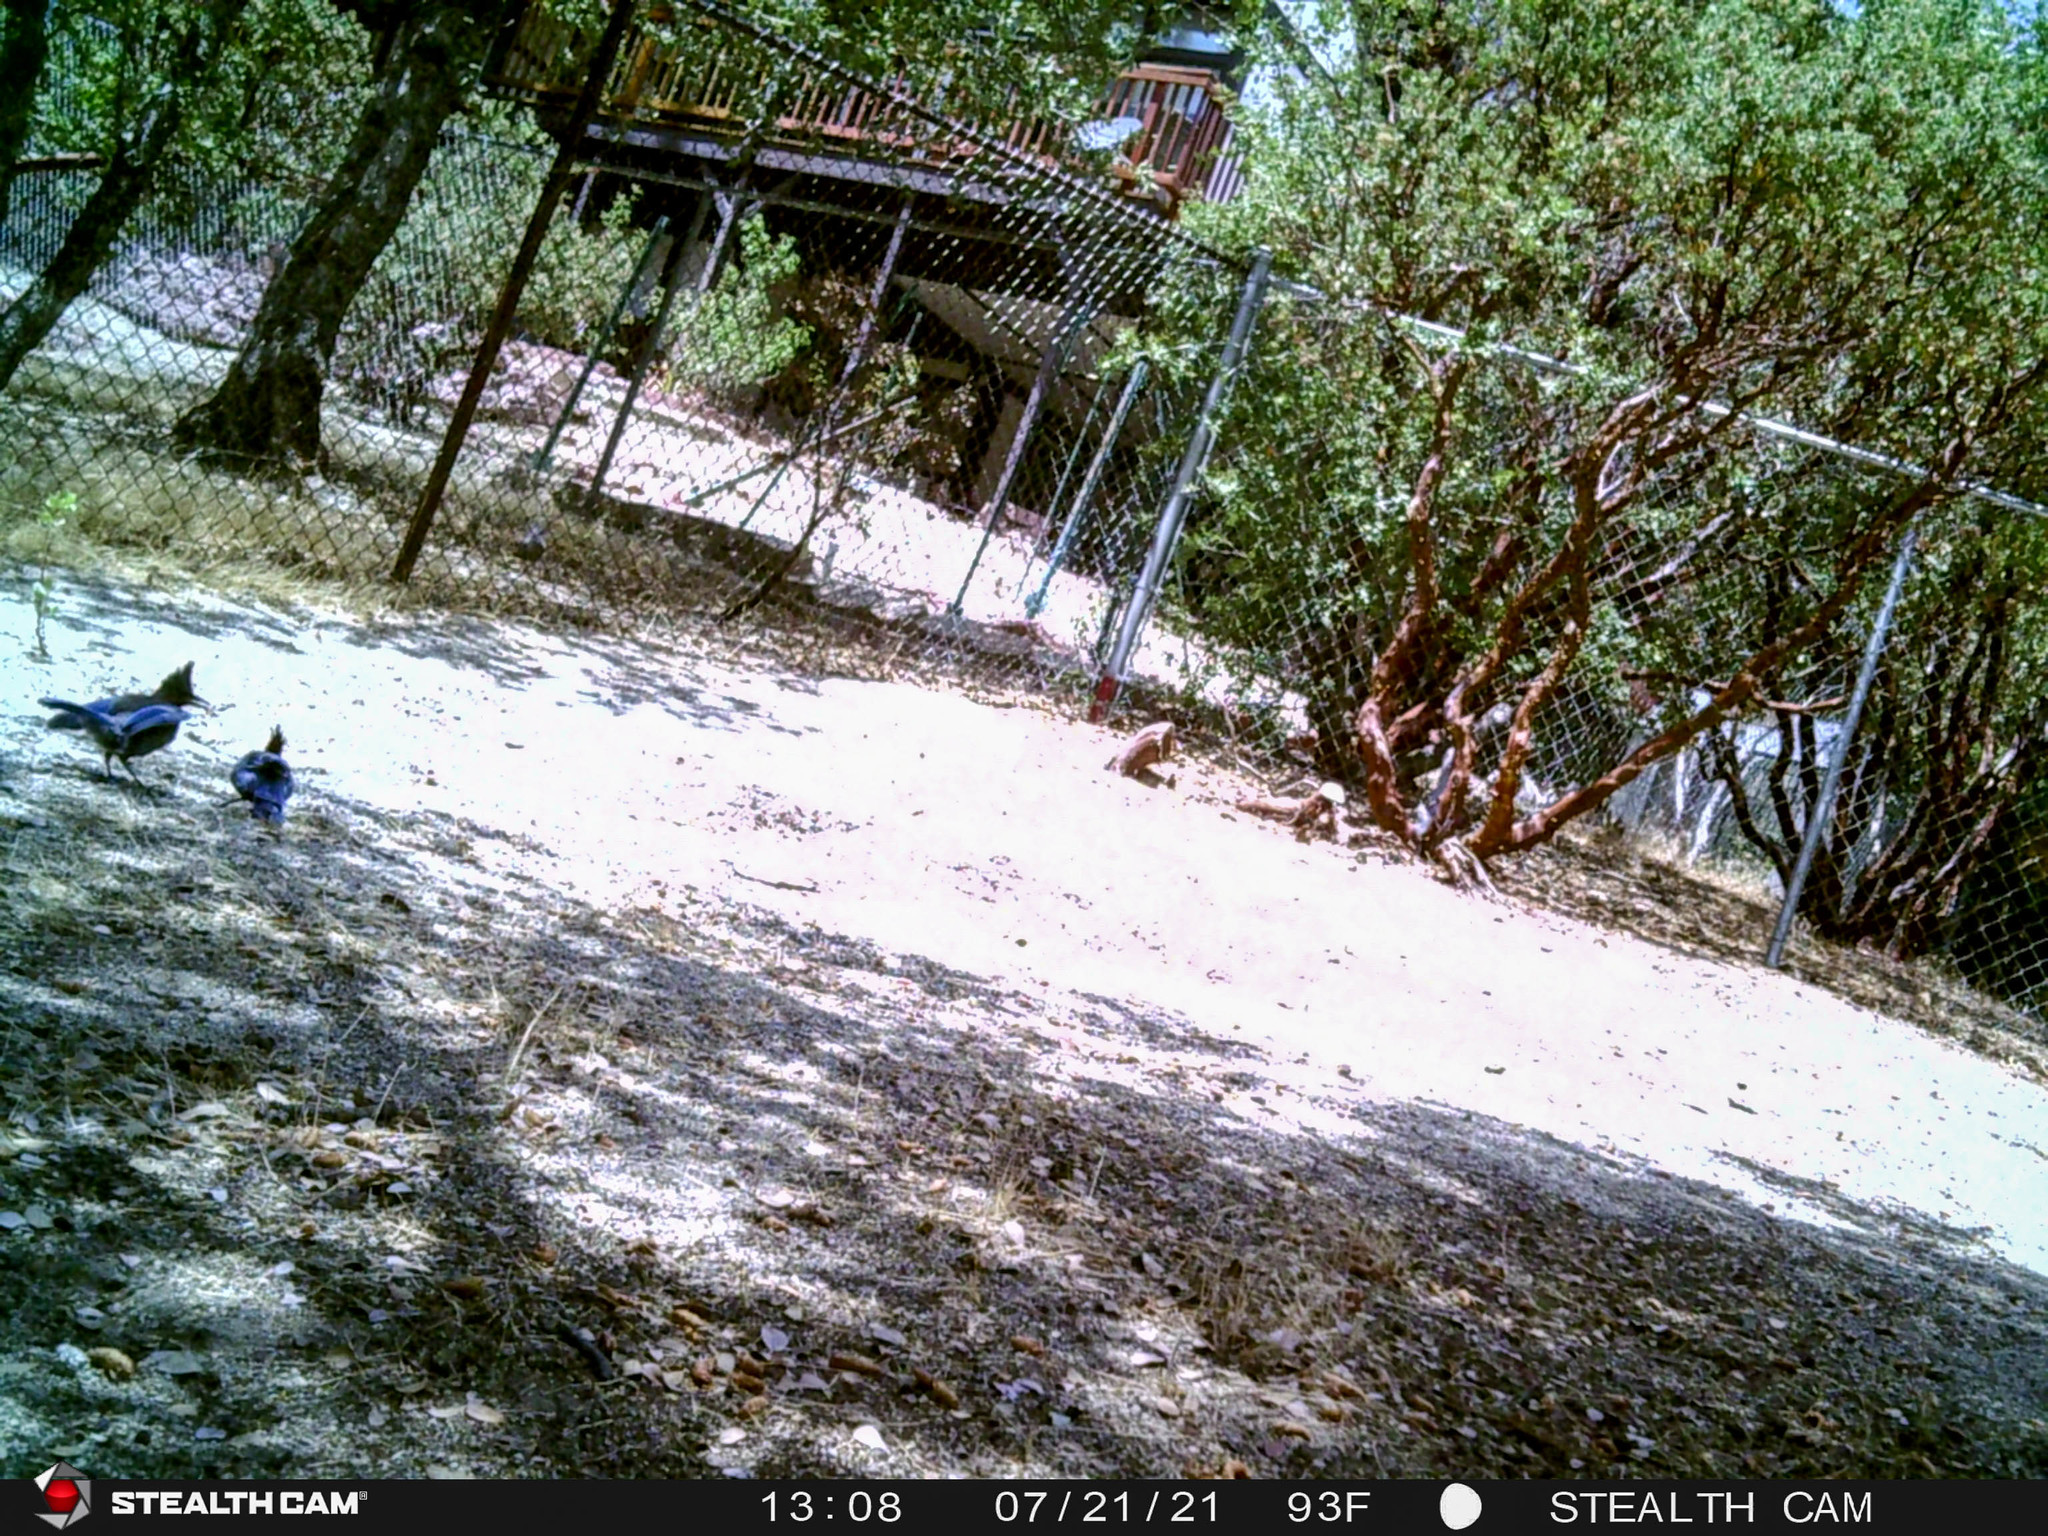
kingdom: Animalia
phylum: Chordata
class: Aves
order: Passeriformes
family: Corvidae
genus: Cyanocitta
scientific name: Cyanocitta stelleri
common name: Steller's jay
